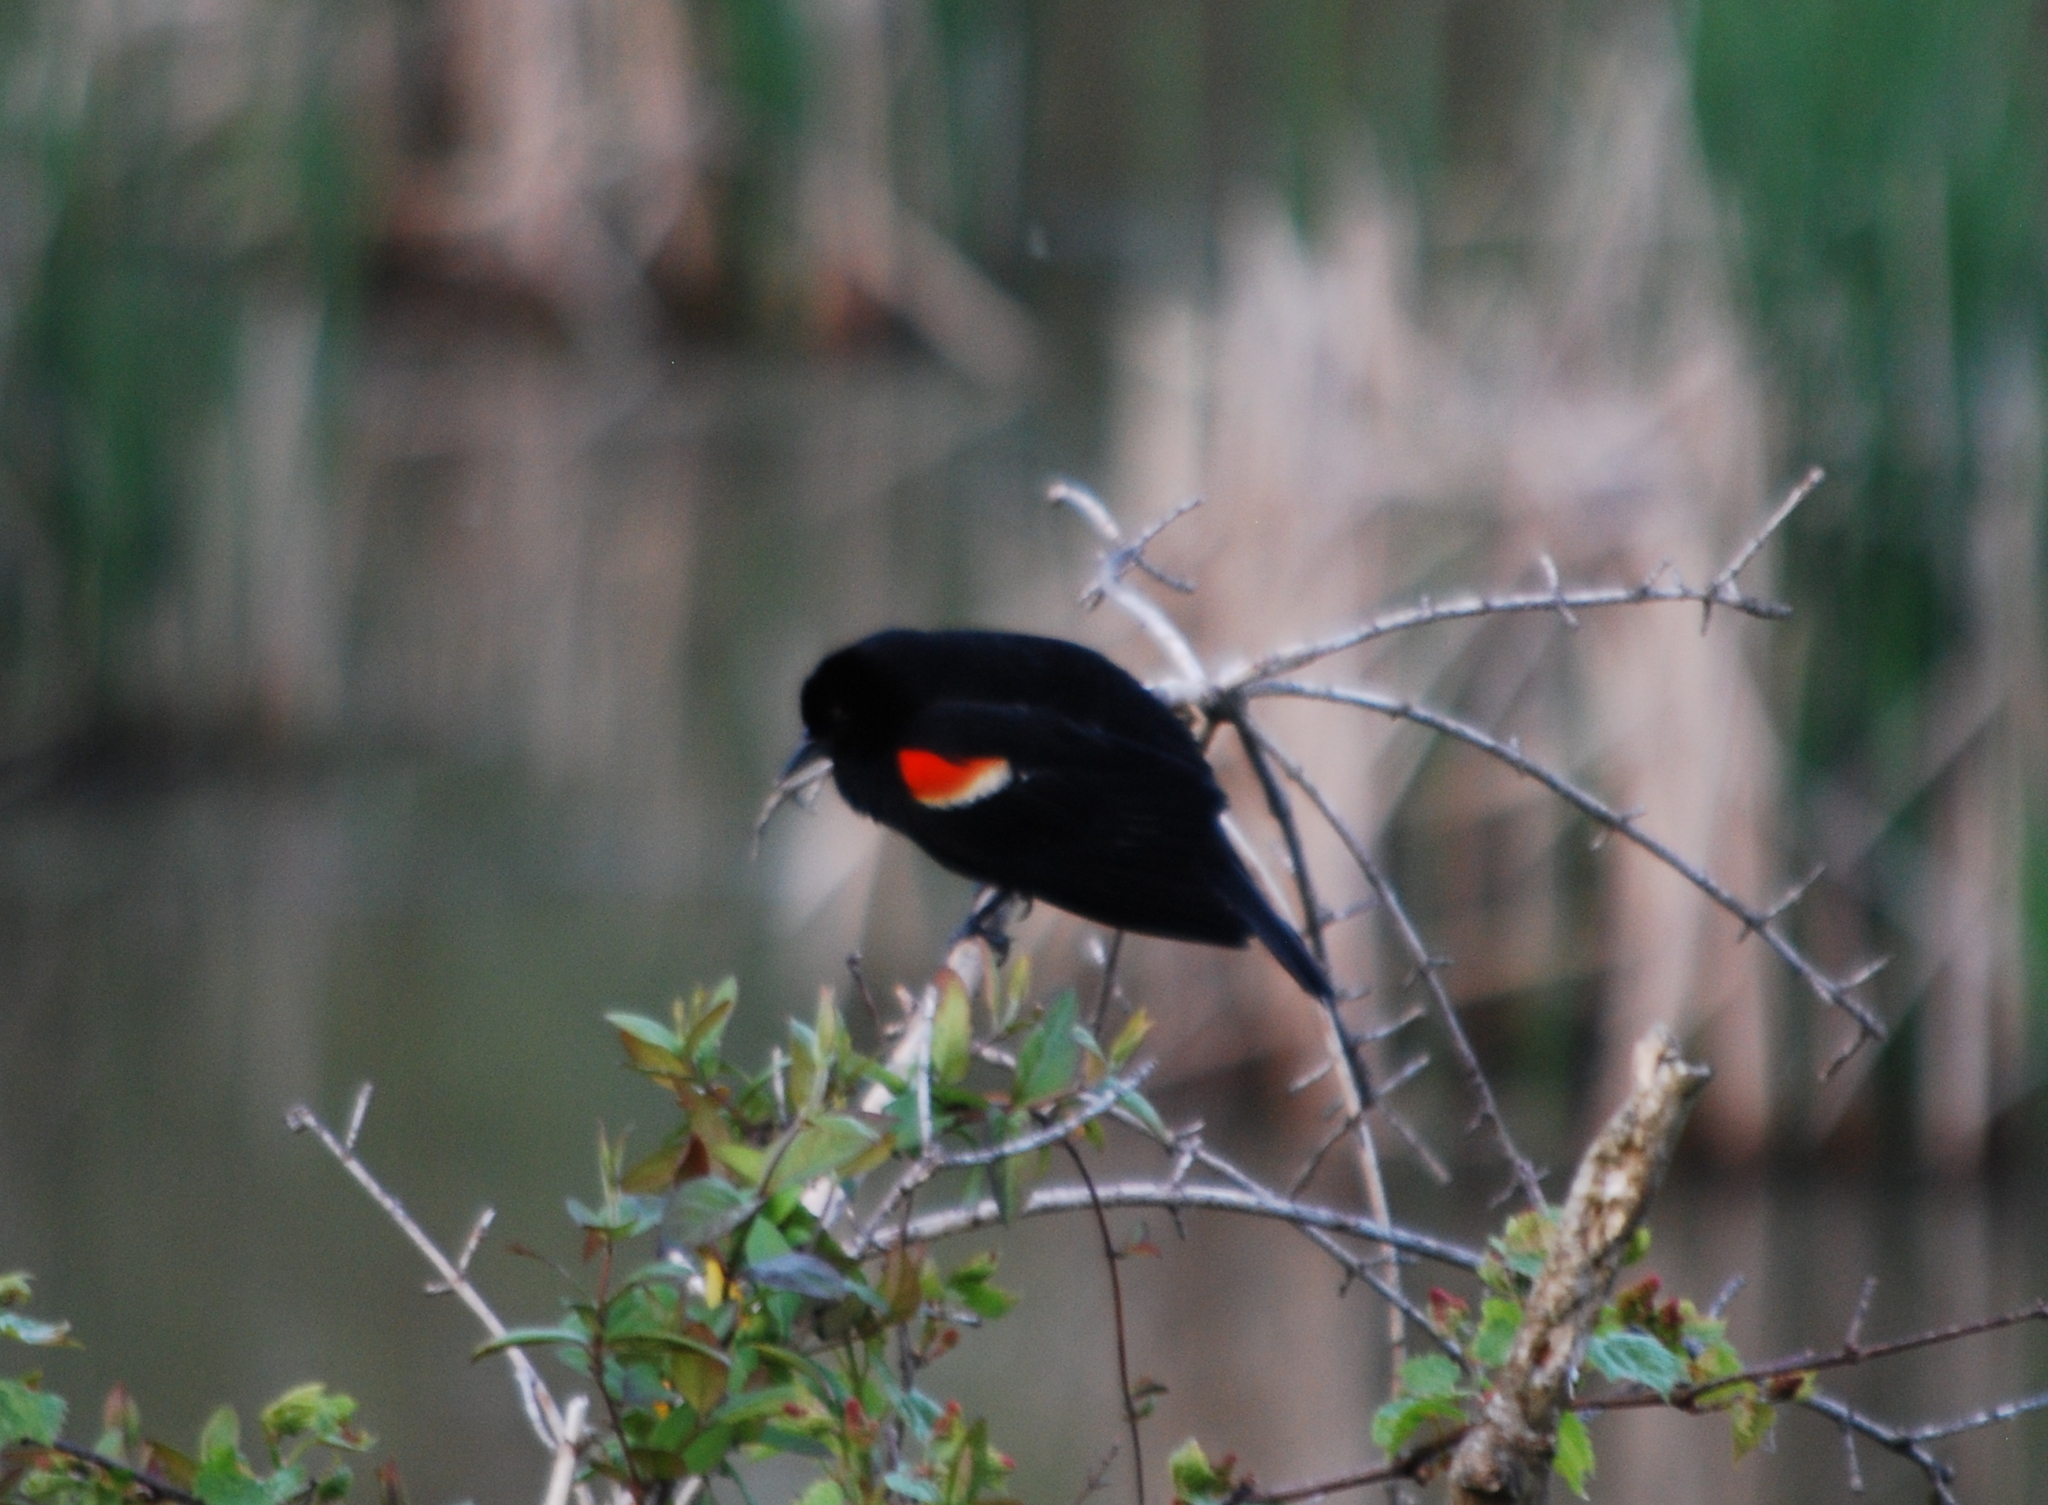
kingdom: Animalia
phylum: Chordata
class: Aves
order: Passeriformes
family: Icteridae
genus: Agelaius
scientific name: Agelaius phoeniceus
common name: Red-winged blackbird
